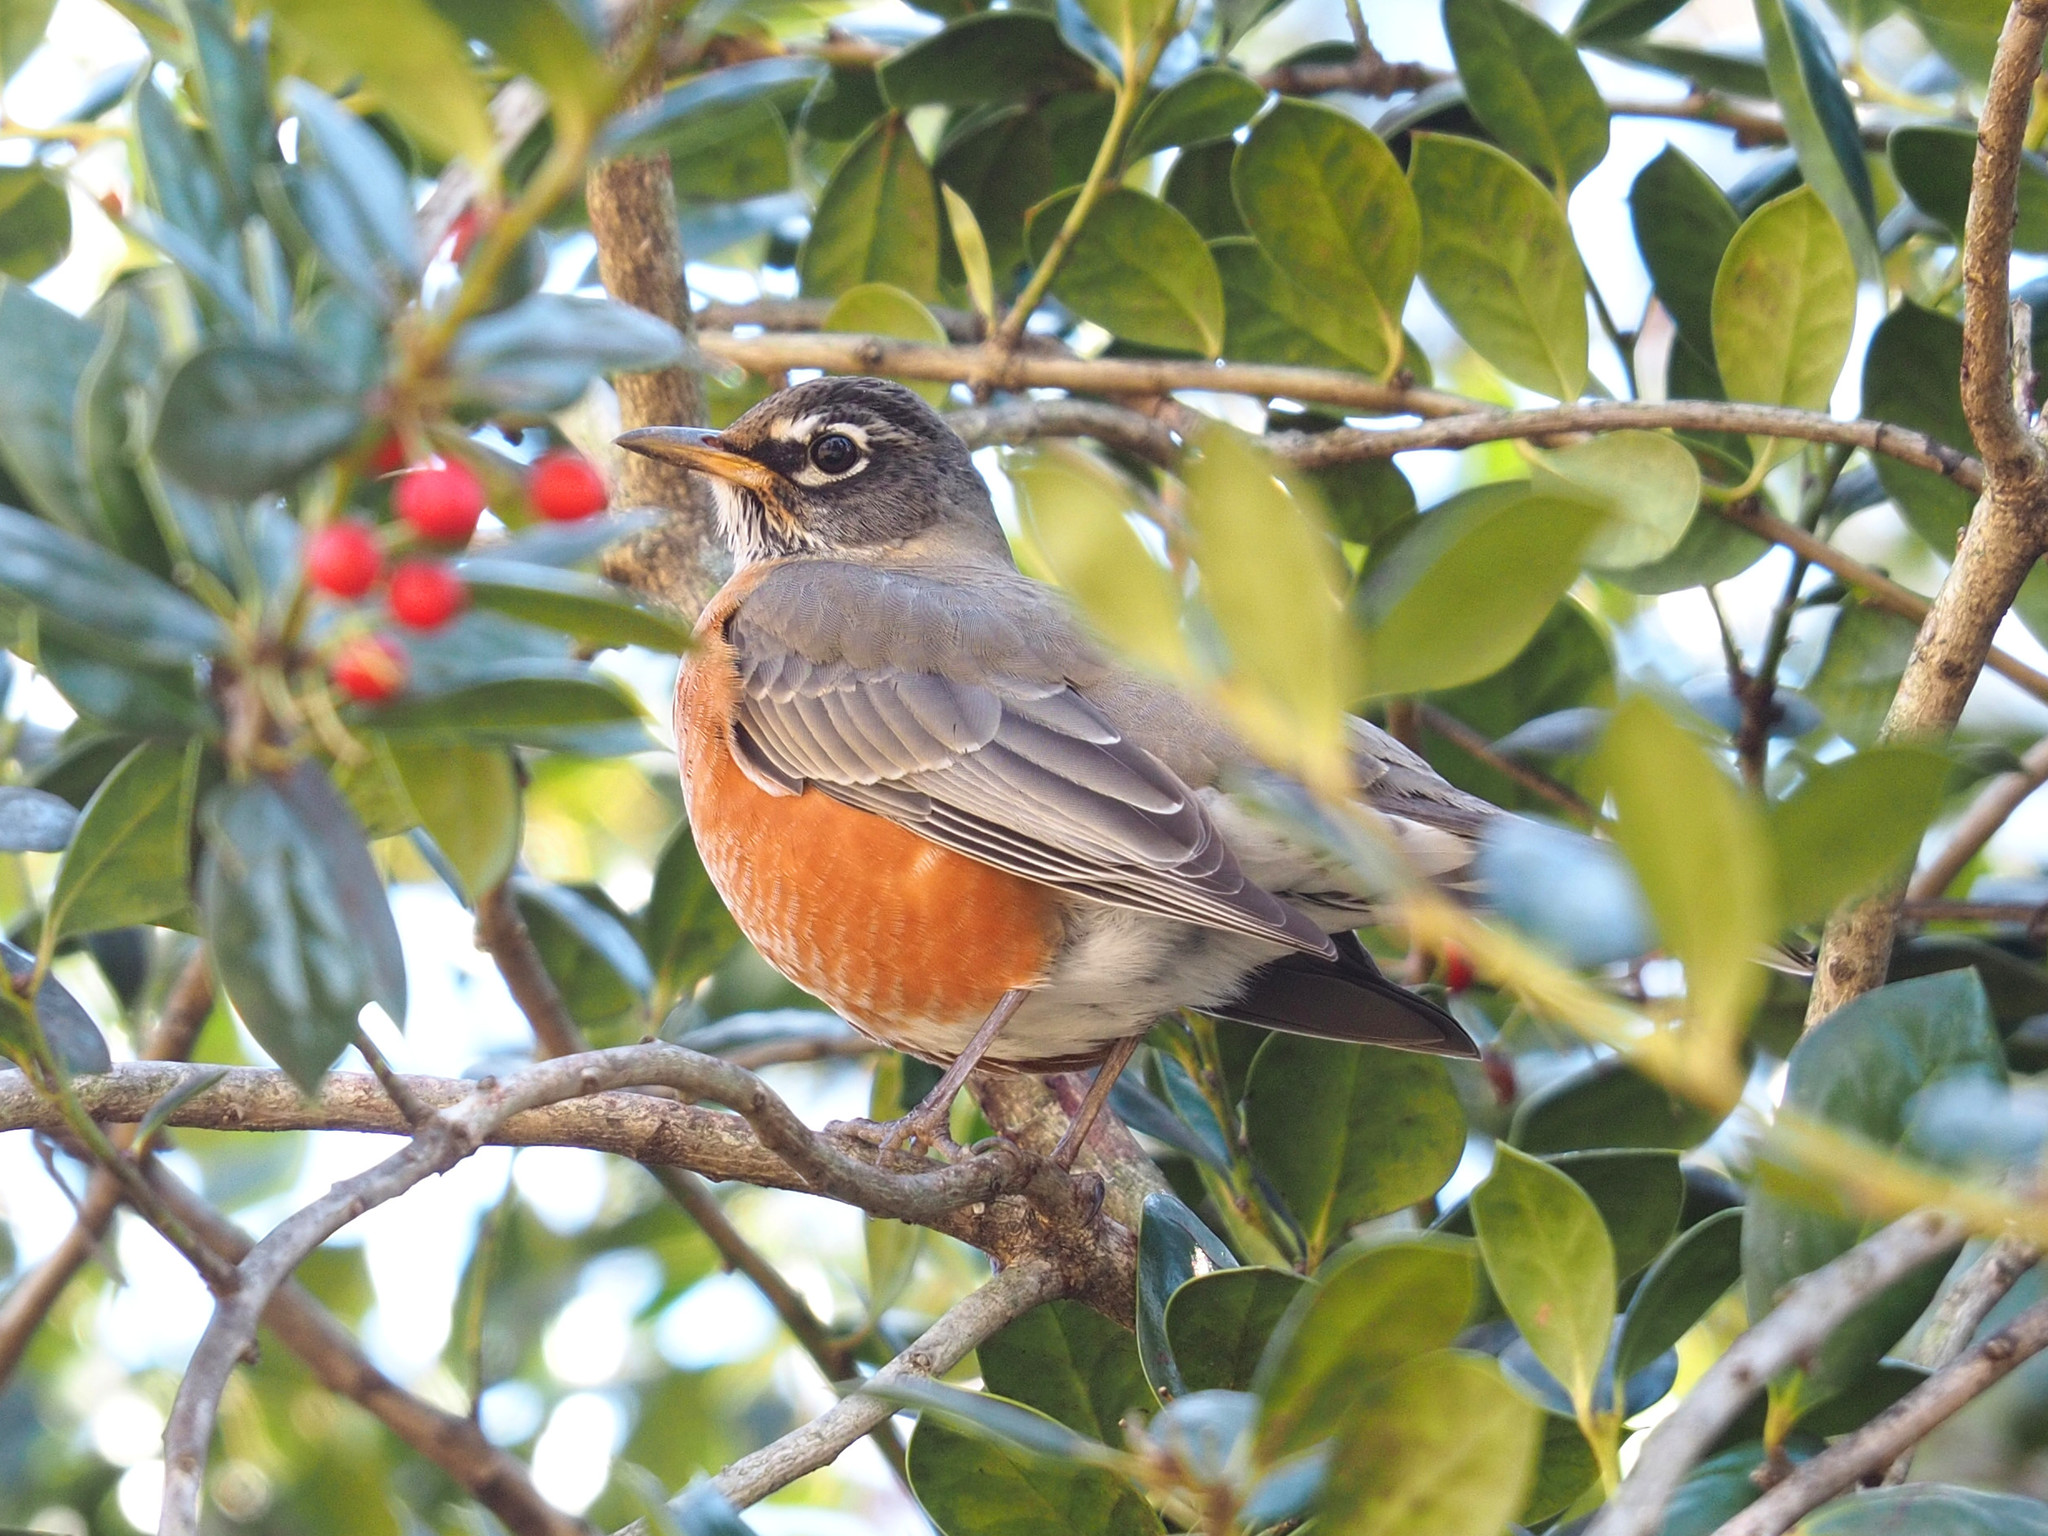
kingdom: Animalia
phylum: Chordata
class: Aves
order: Passeriformes
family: Turdidae
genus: Turdus
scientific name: Turdus migratorius
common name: American robin
